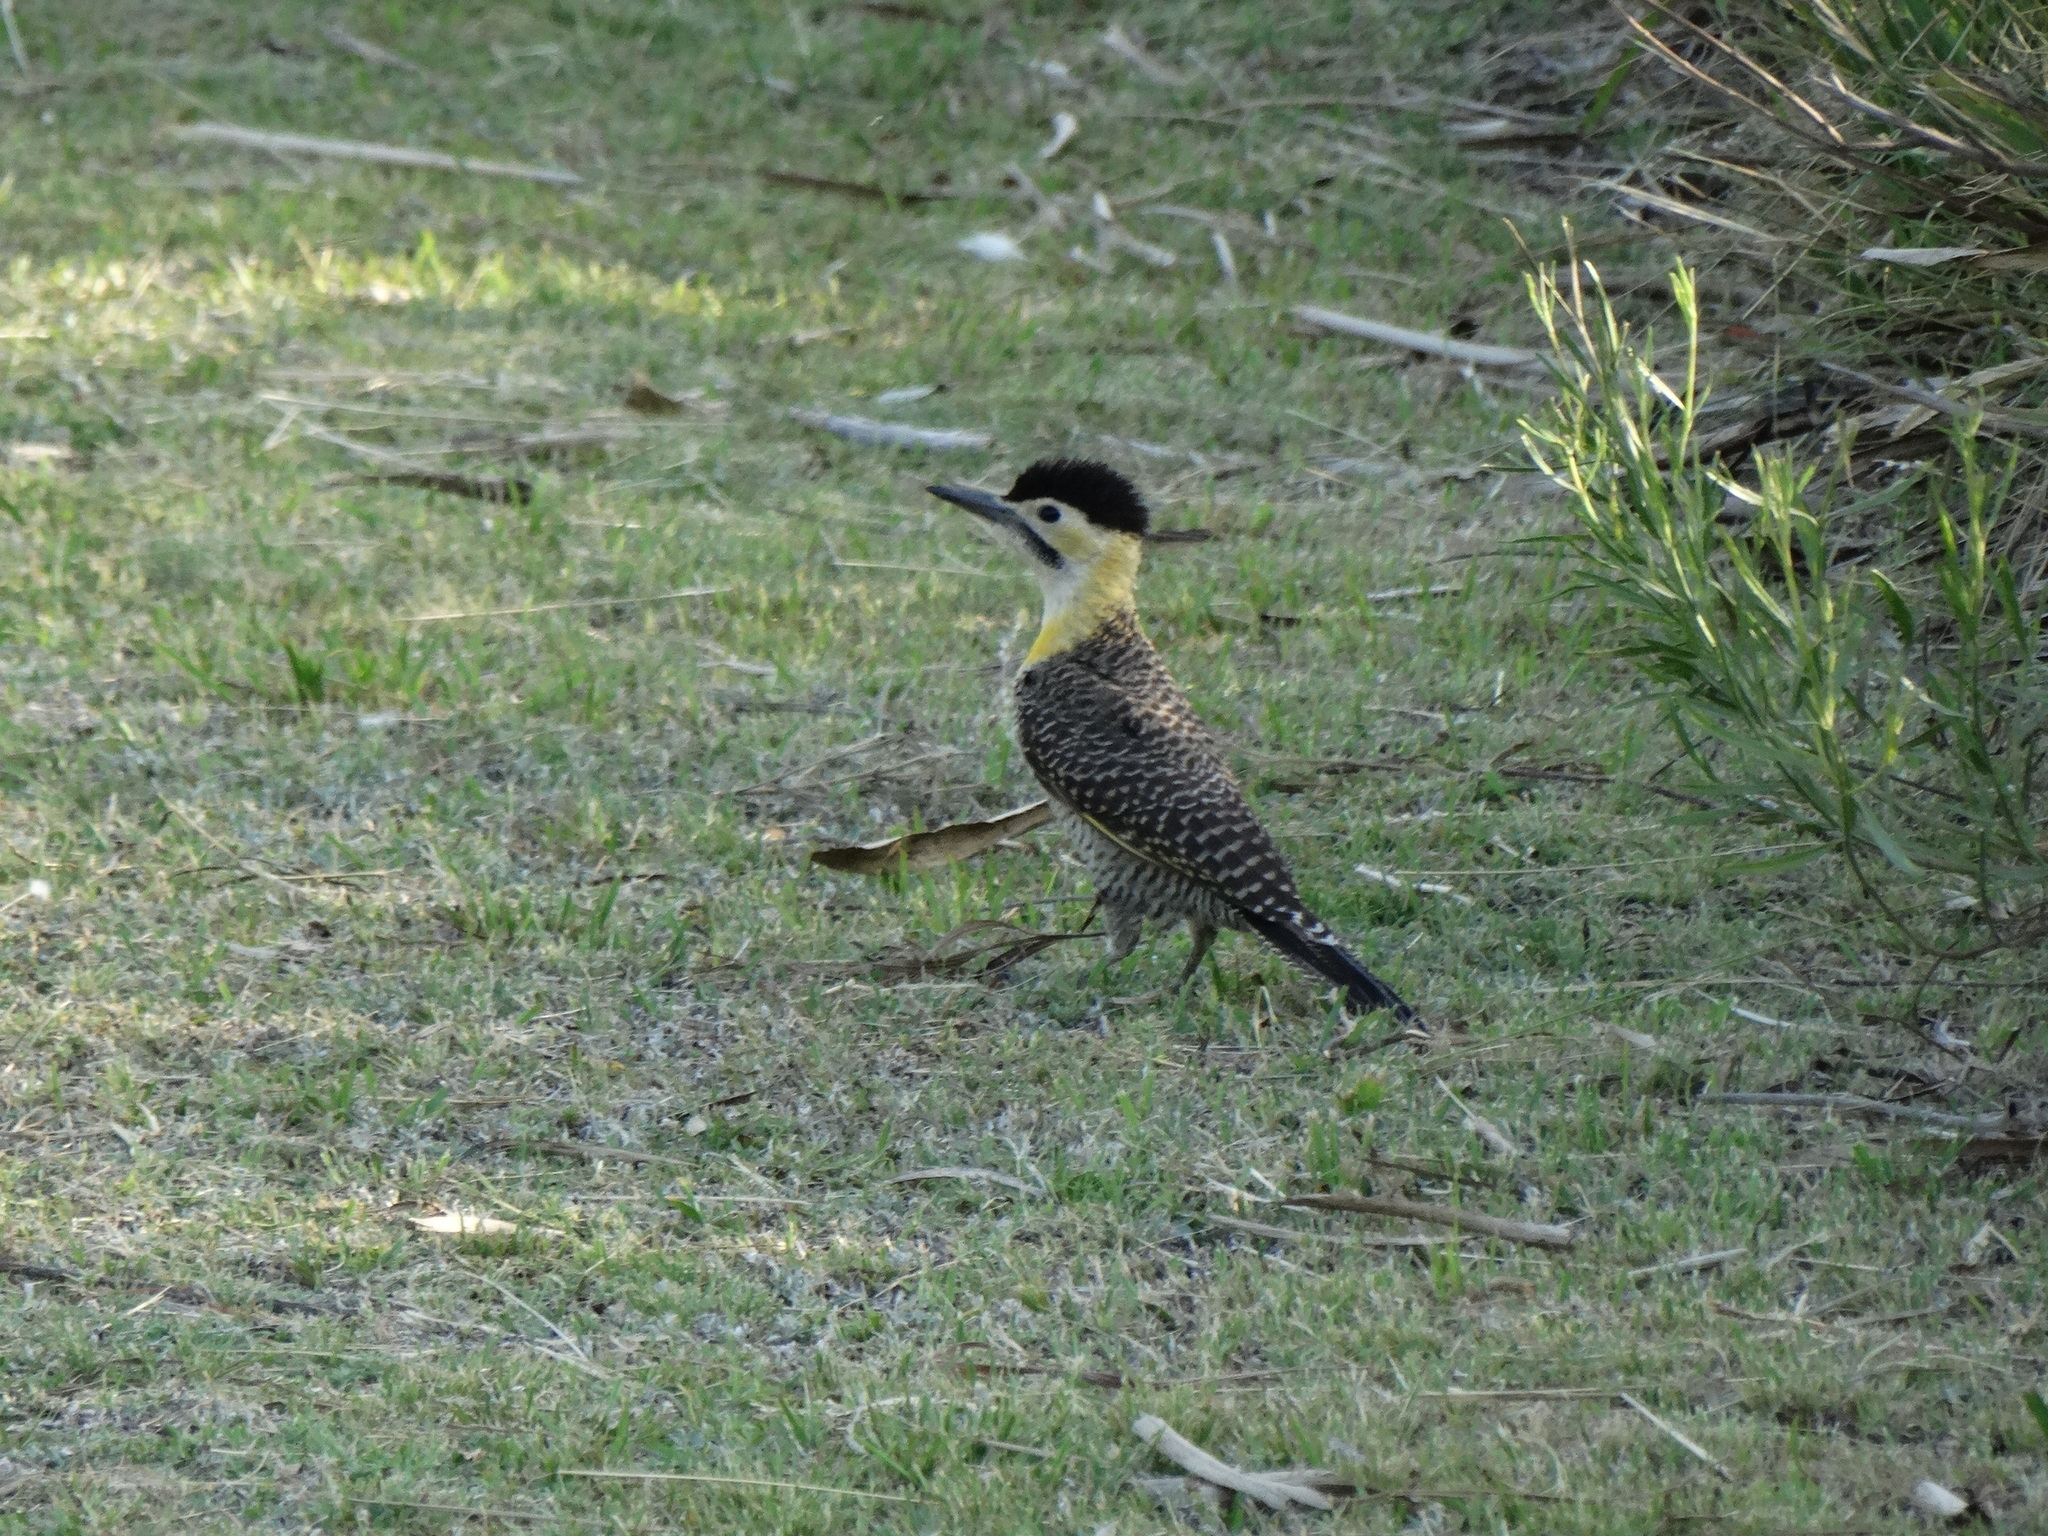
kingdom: Animalia
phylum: Chordata
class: Aves
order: Piciformes
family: Picidae
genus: Colaptes
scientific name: Colaptes campestris
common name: Campo flicker
